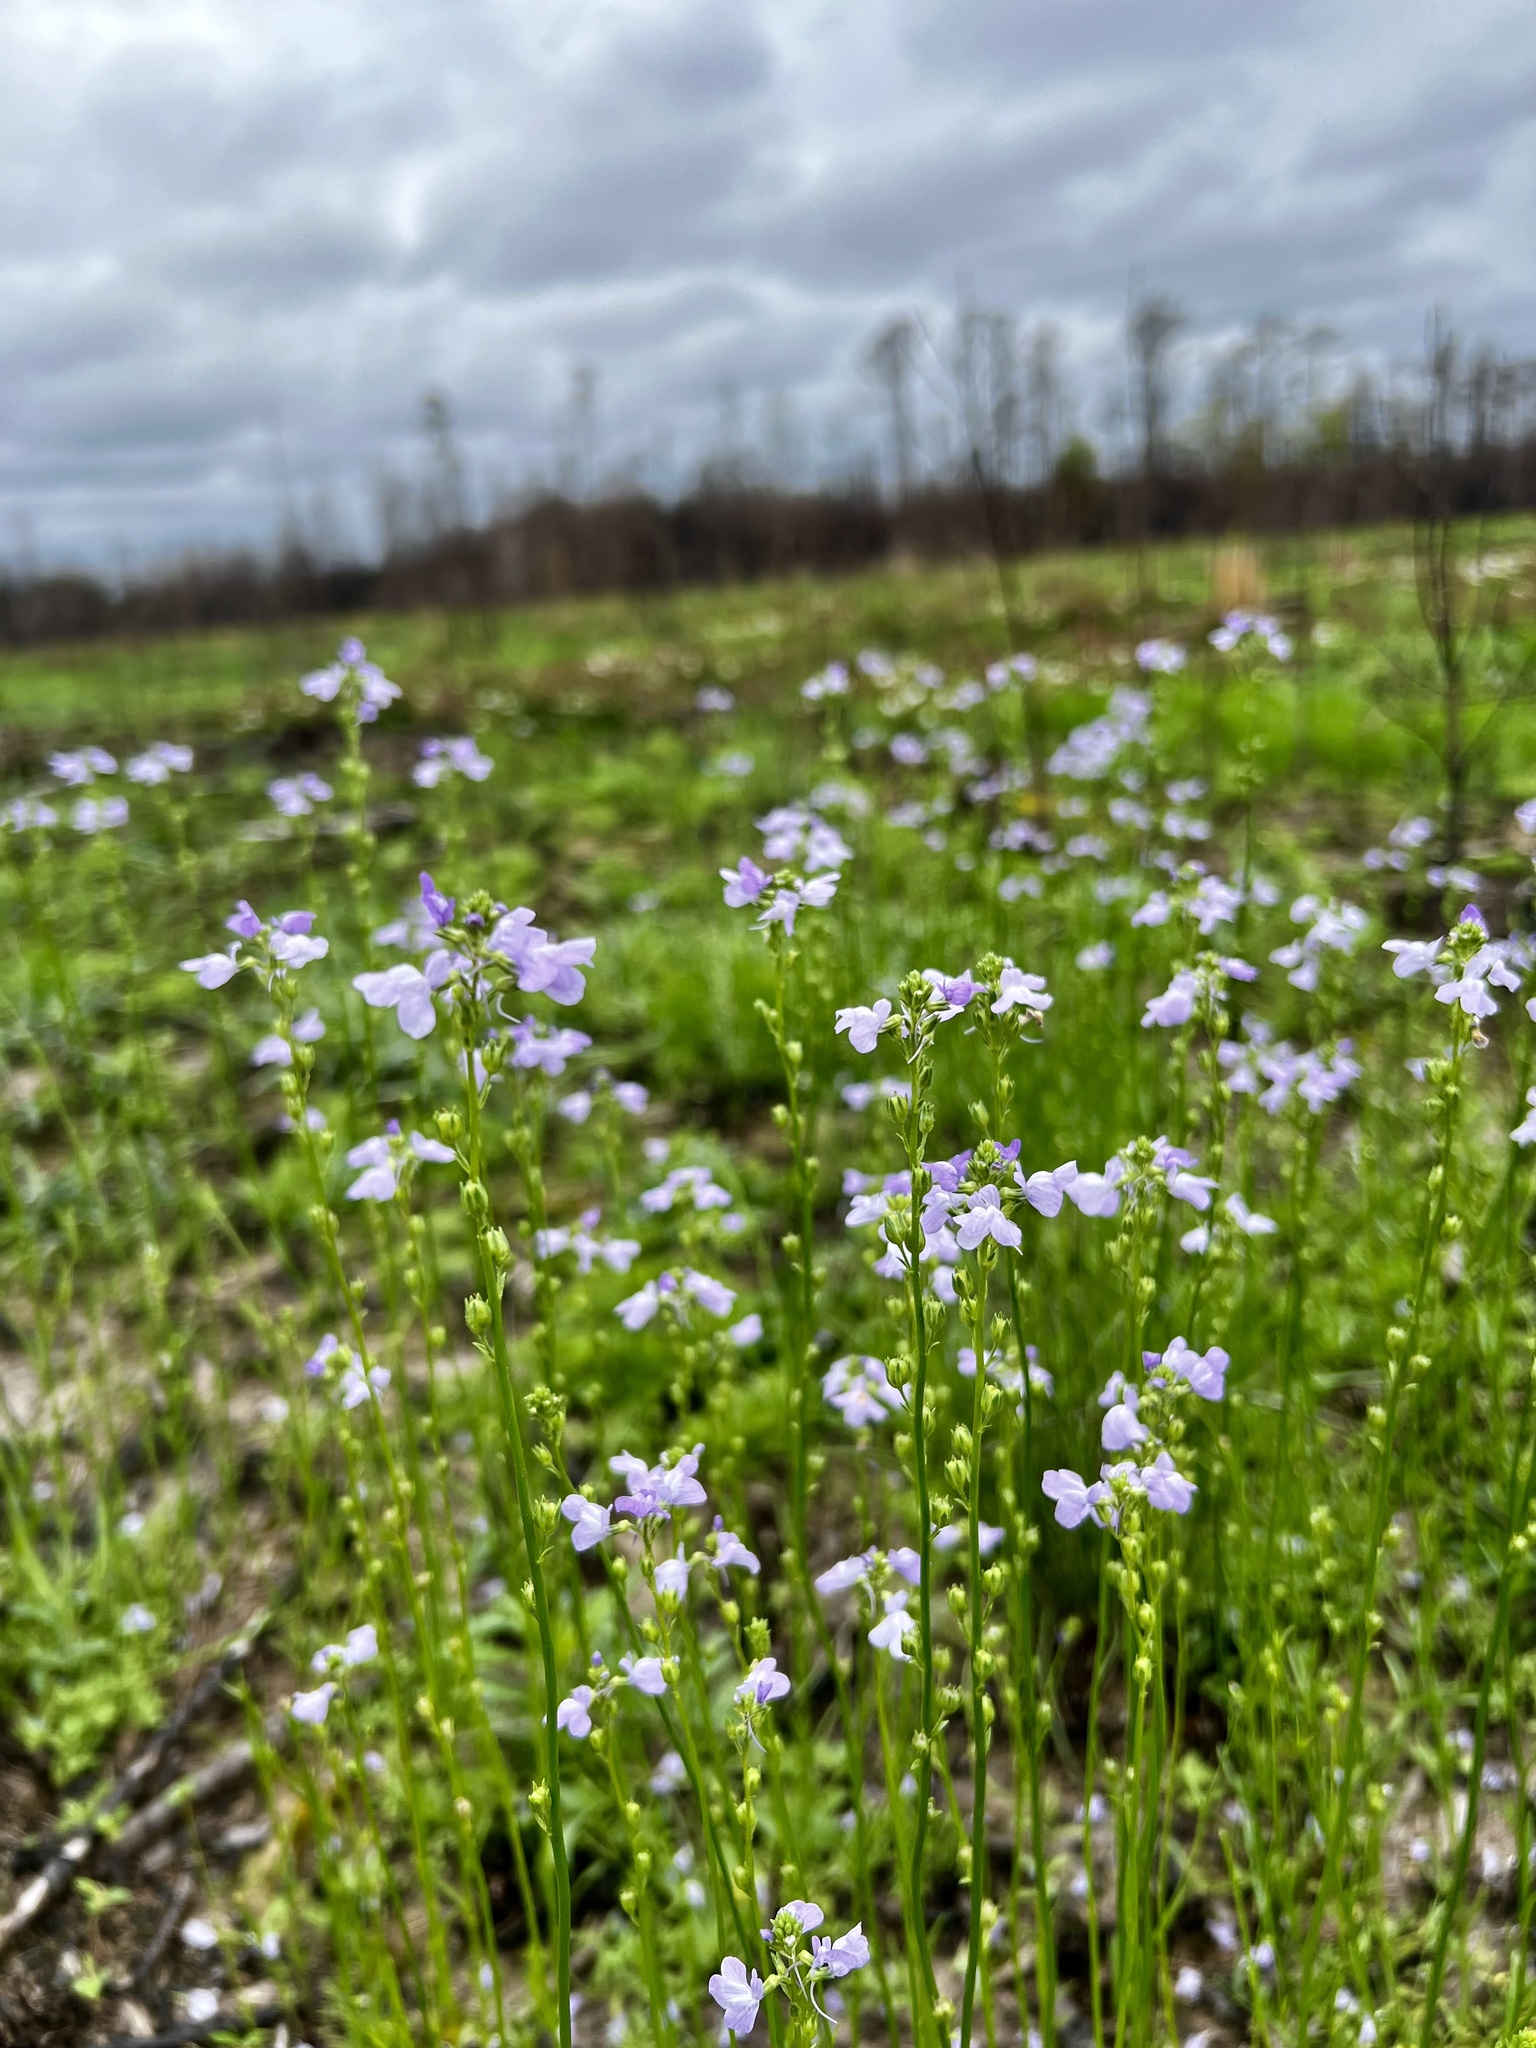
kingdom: Plantae
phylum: Tracheophyta
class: Magnoliopsida
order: Lamiales
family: Plantaginaceae
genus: Nuttallanthus
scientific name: Nuttallanthus texanus
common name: Texas toadflax
